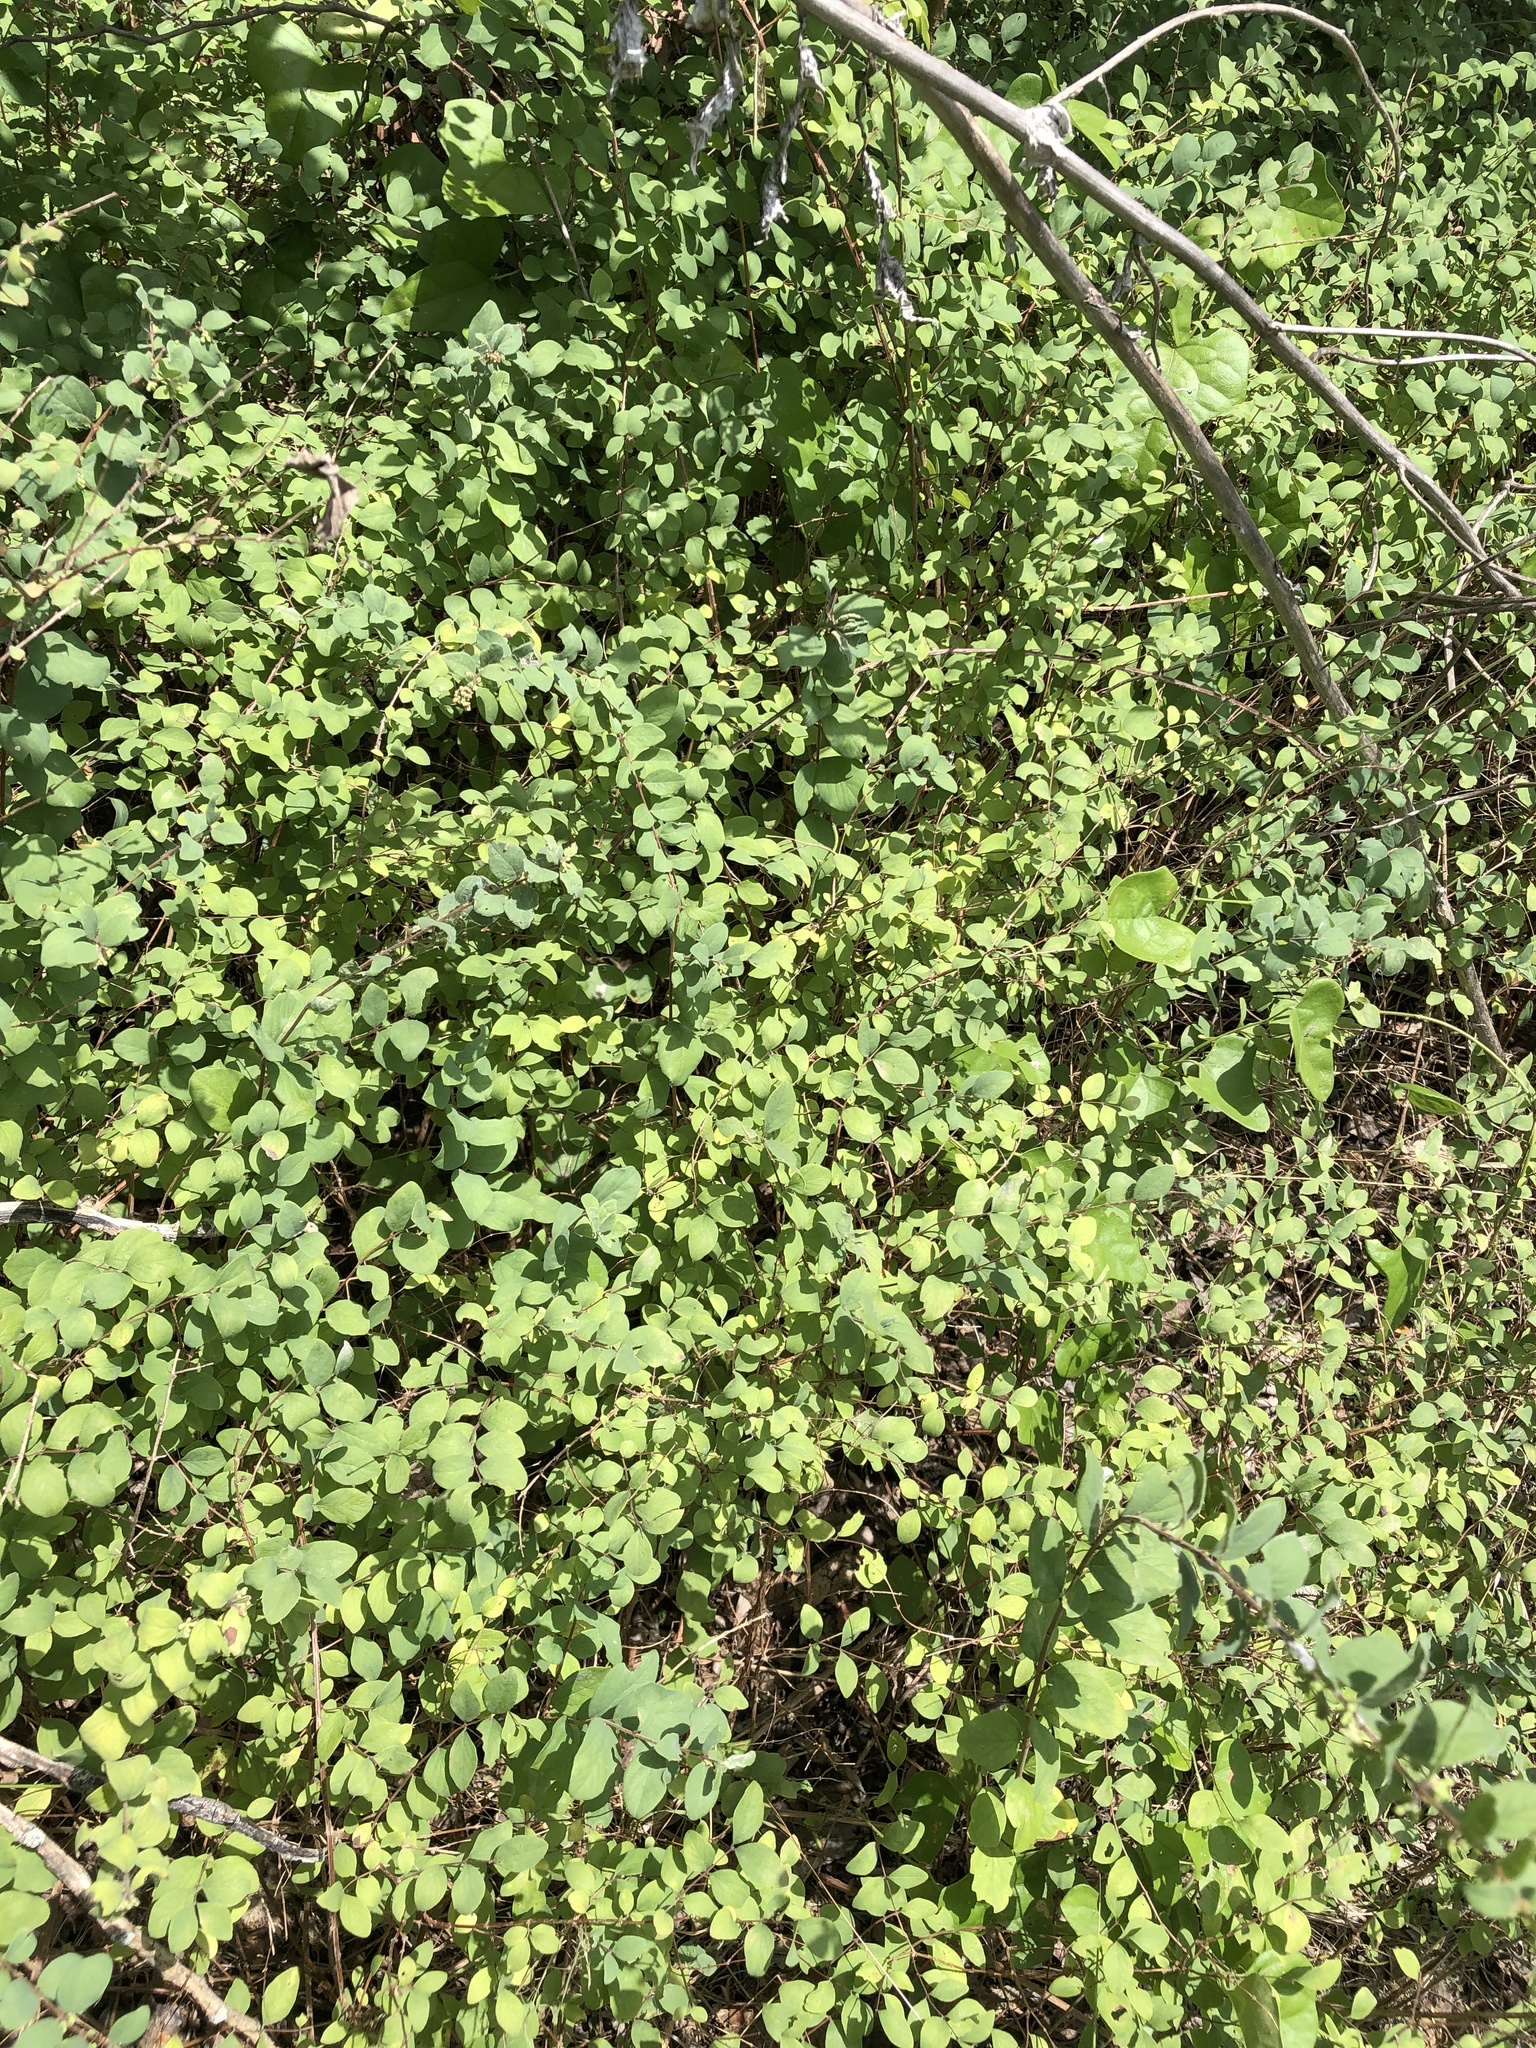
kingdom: Plantae
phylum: Tracheophyta
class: Magnoliopsida
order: Dipsacales
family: Caprifoliaceae
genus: Symphoricarpos
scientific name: Symphoricarpos orbiculatus
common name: Coralberry
